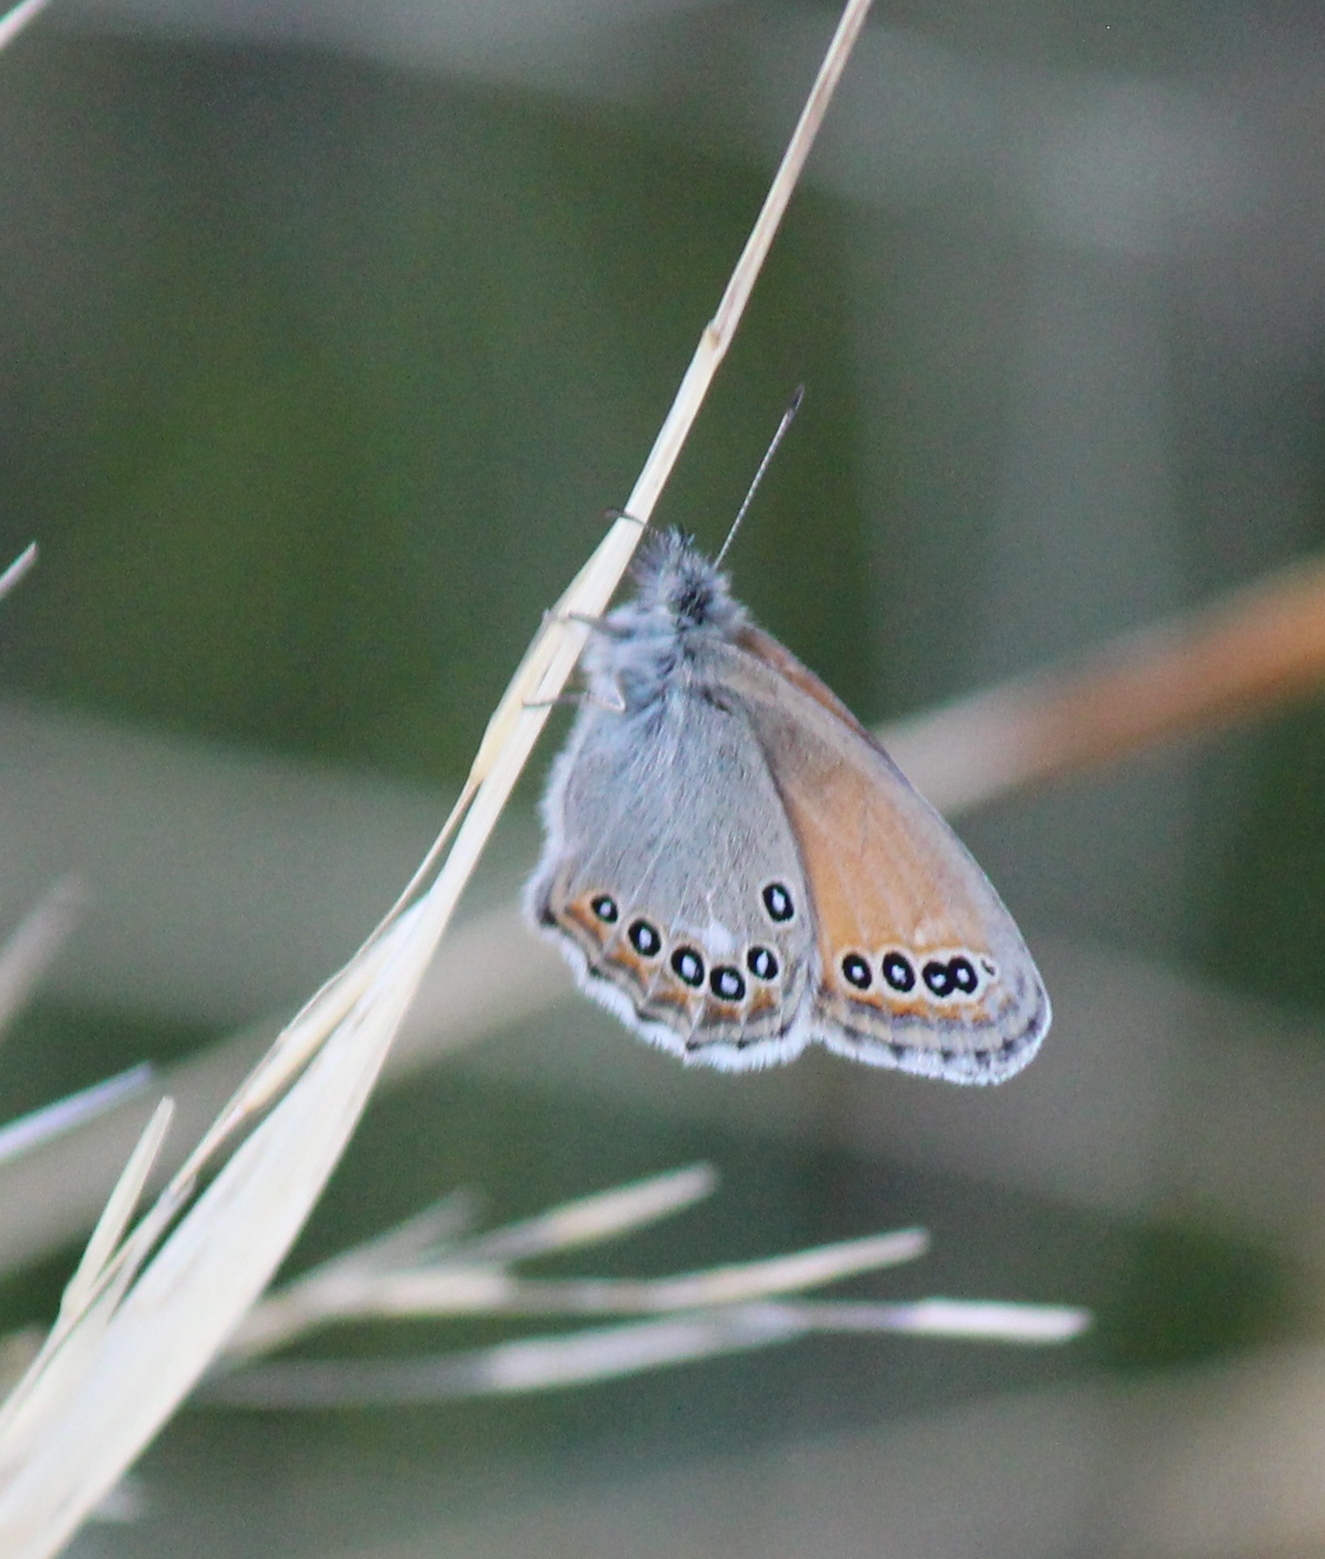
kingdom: Animalia
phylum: Arthropoda
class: Insecta
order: Lepidoptera
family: Nymphalidae
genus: Coenonympha
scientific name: Coenonympha amaryllis
